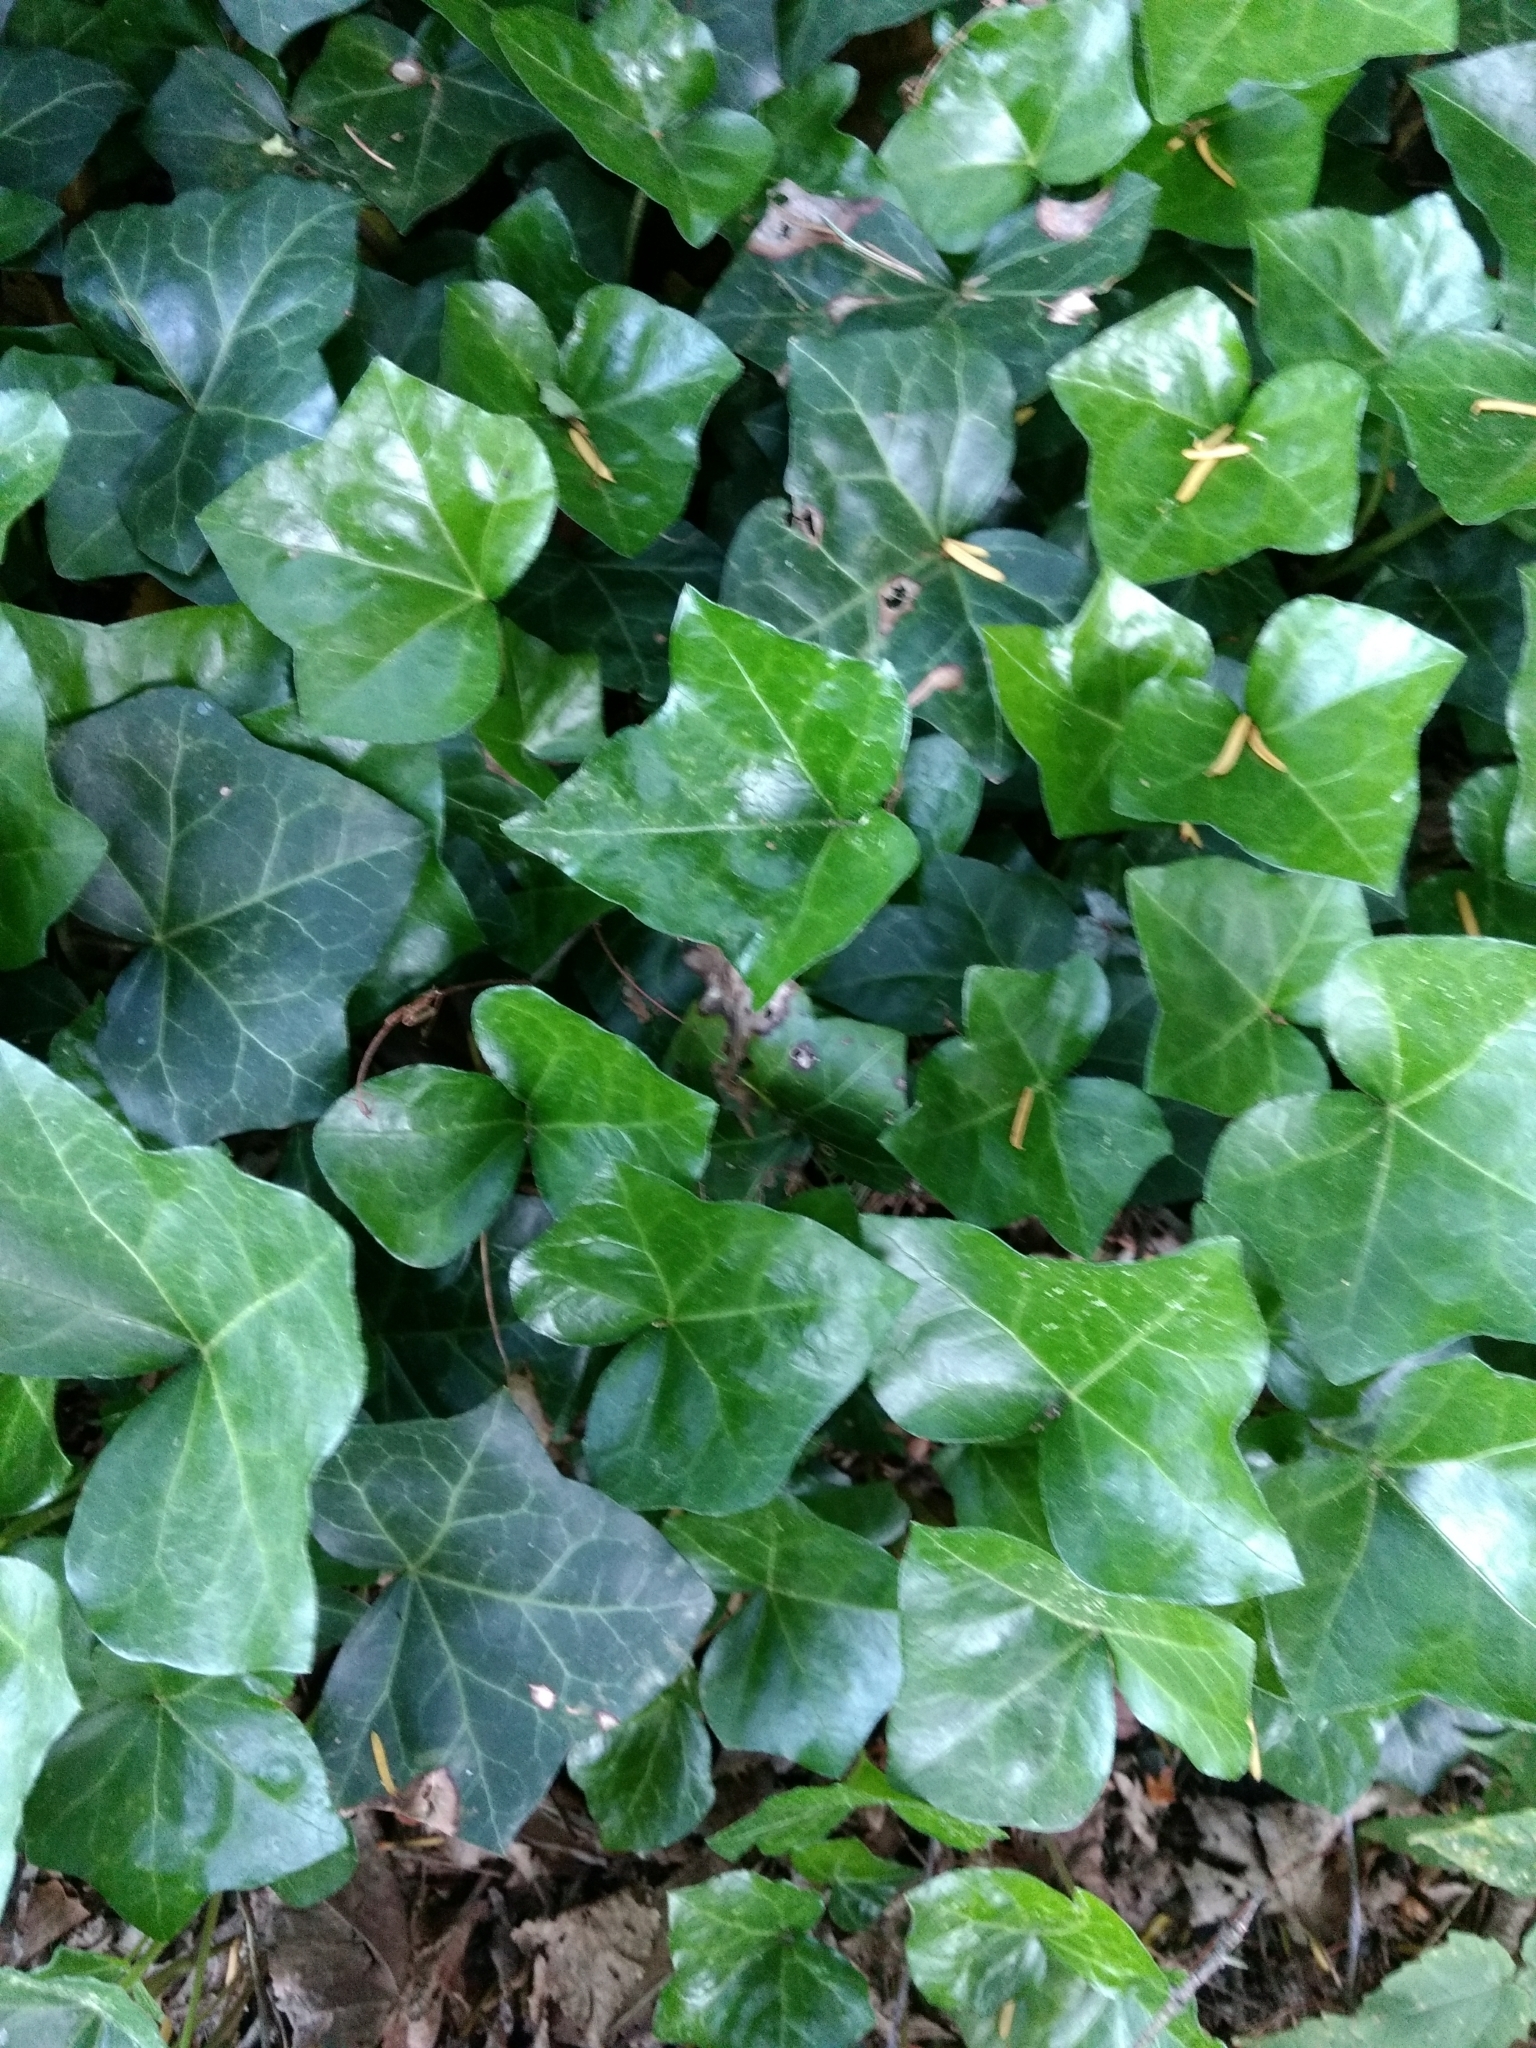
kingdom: Plantae
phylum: Tracheophyta
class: Magnoliopsida
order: Apiales
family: Araliaceae
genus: Hedera
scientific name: Hedera helix
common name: Ivy
